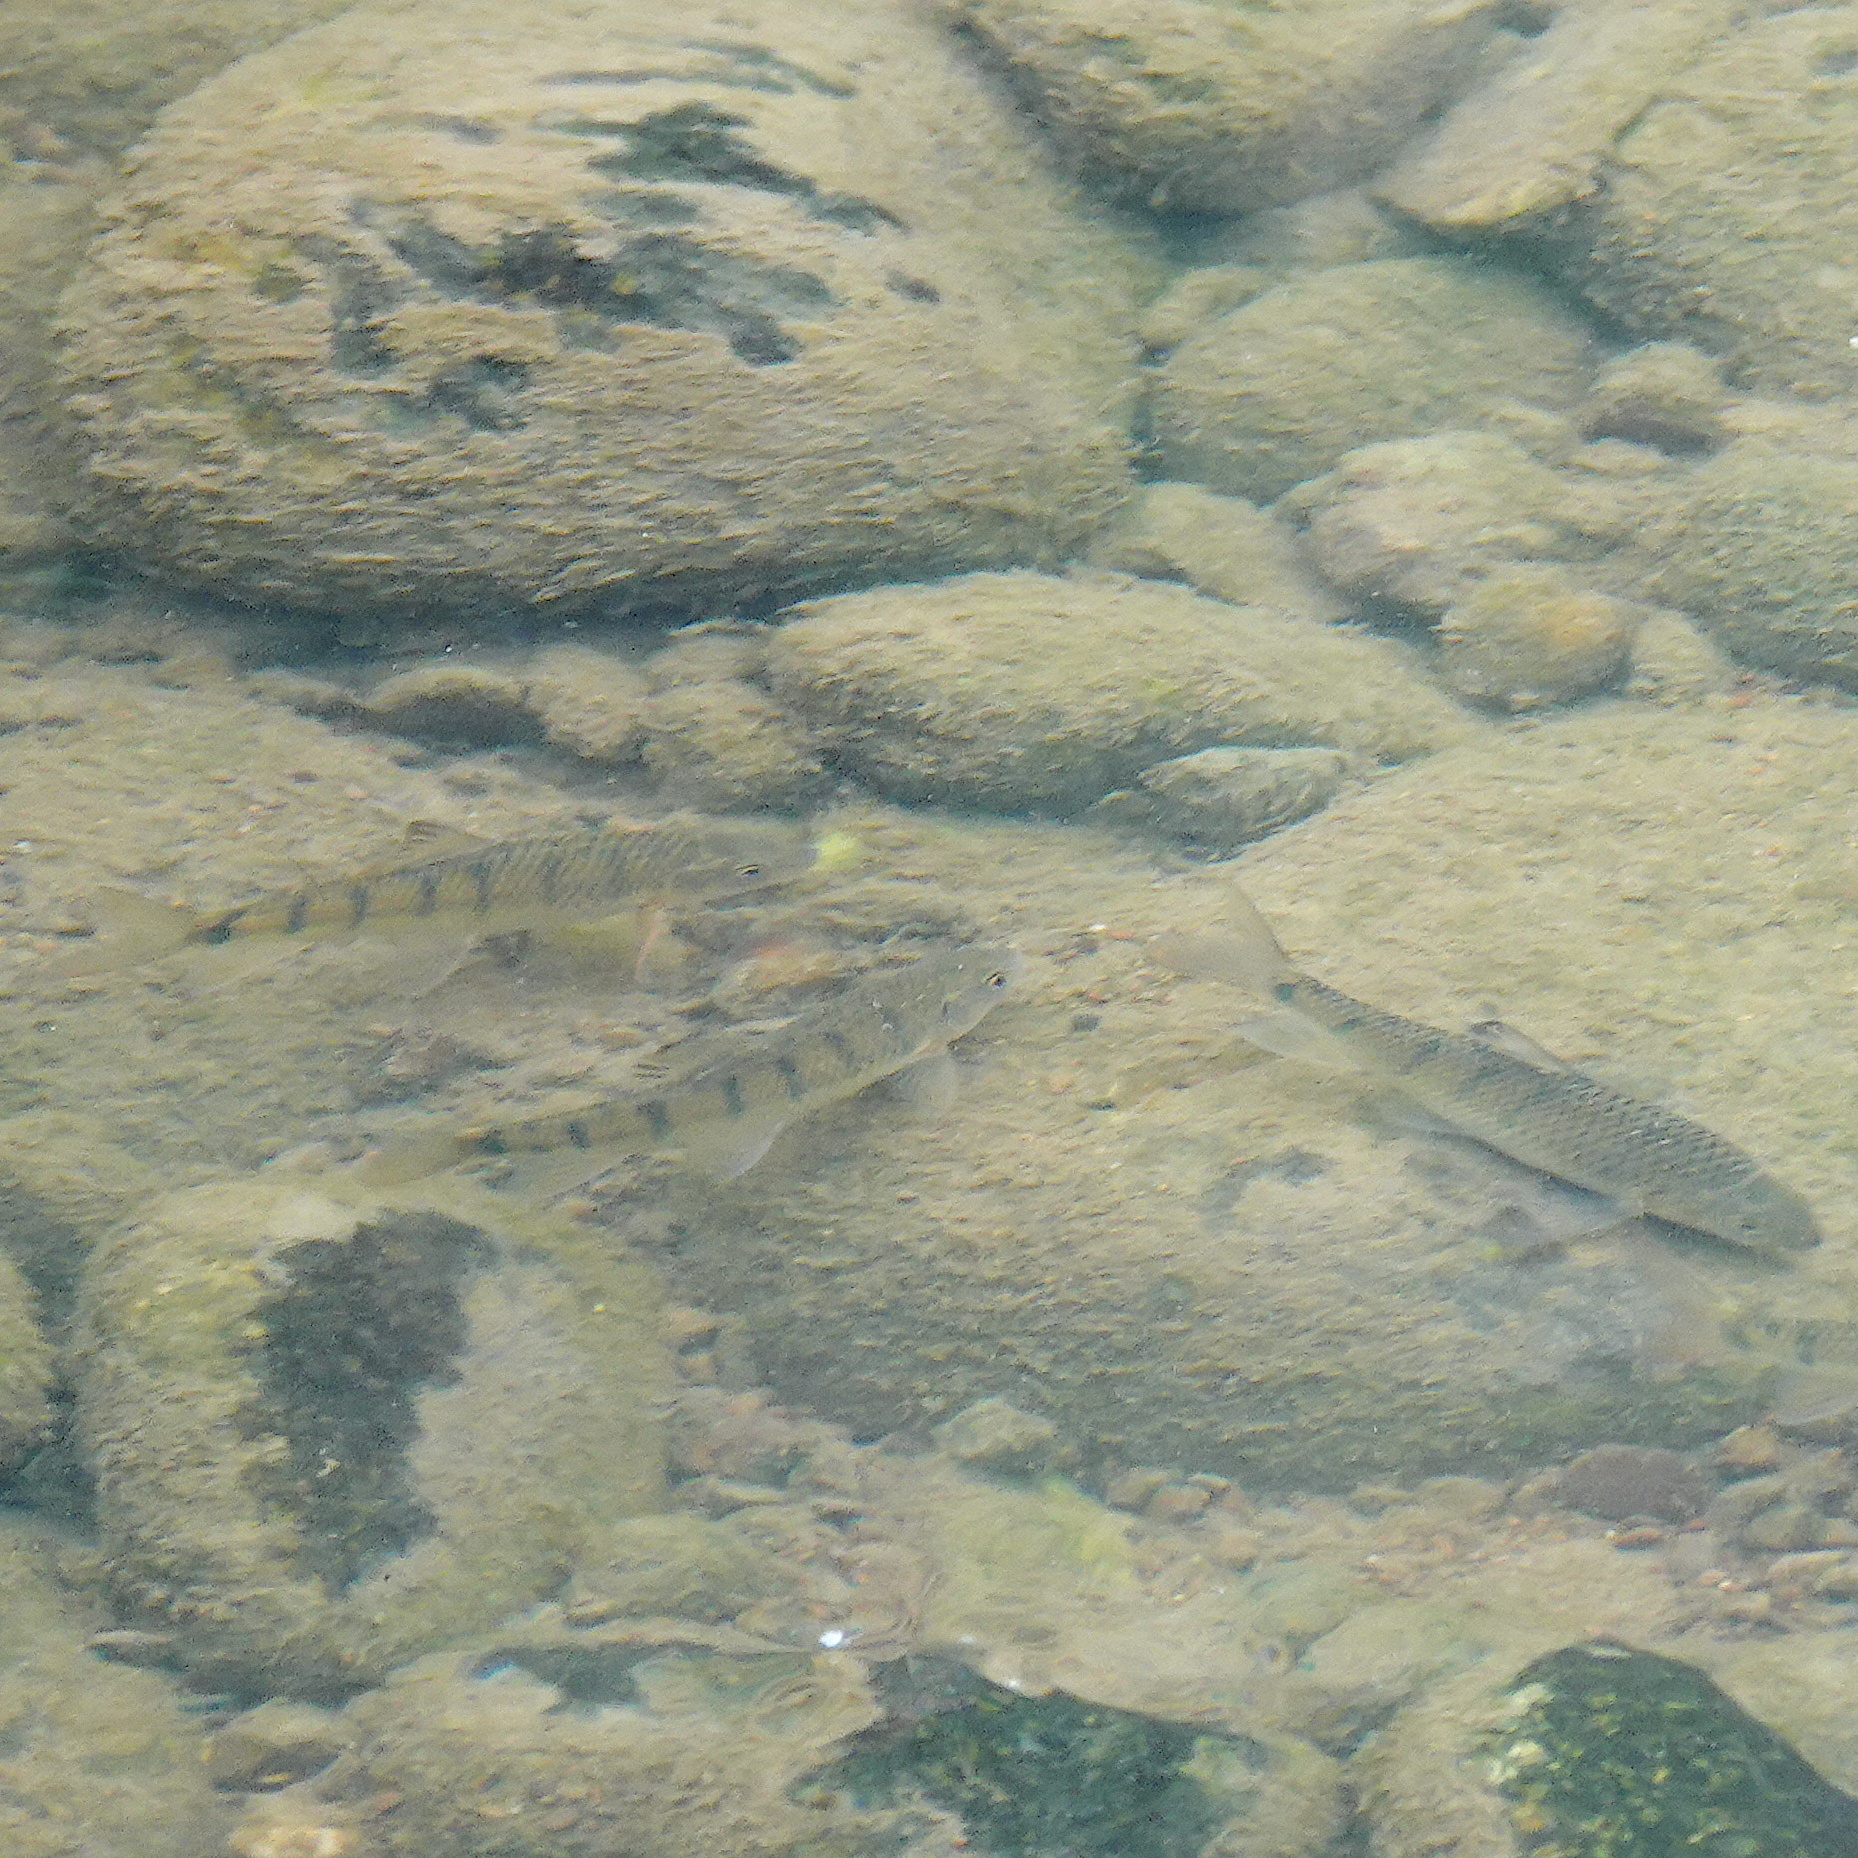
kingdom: Animalia
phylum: Chordata
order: Cypriniformes
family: Cyprinidae
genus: Acrossocheilus
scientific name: Acrossocheilus paradoxus
